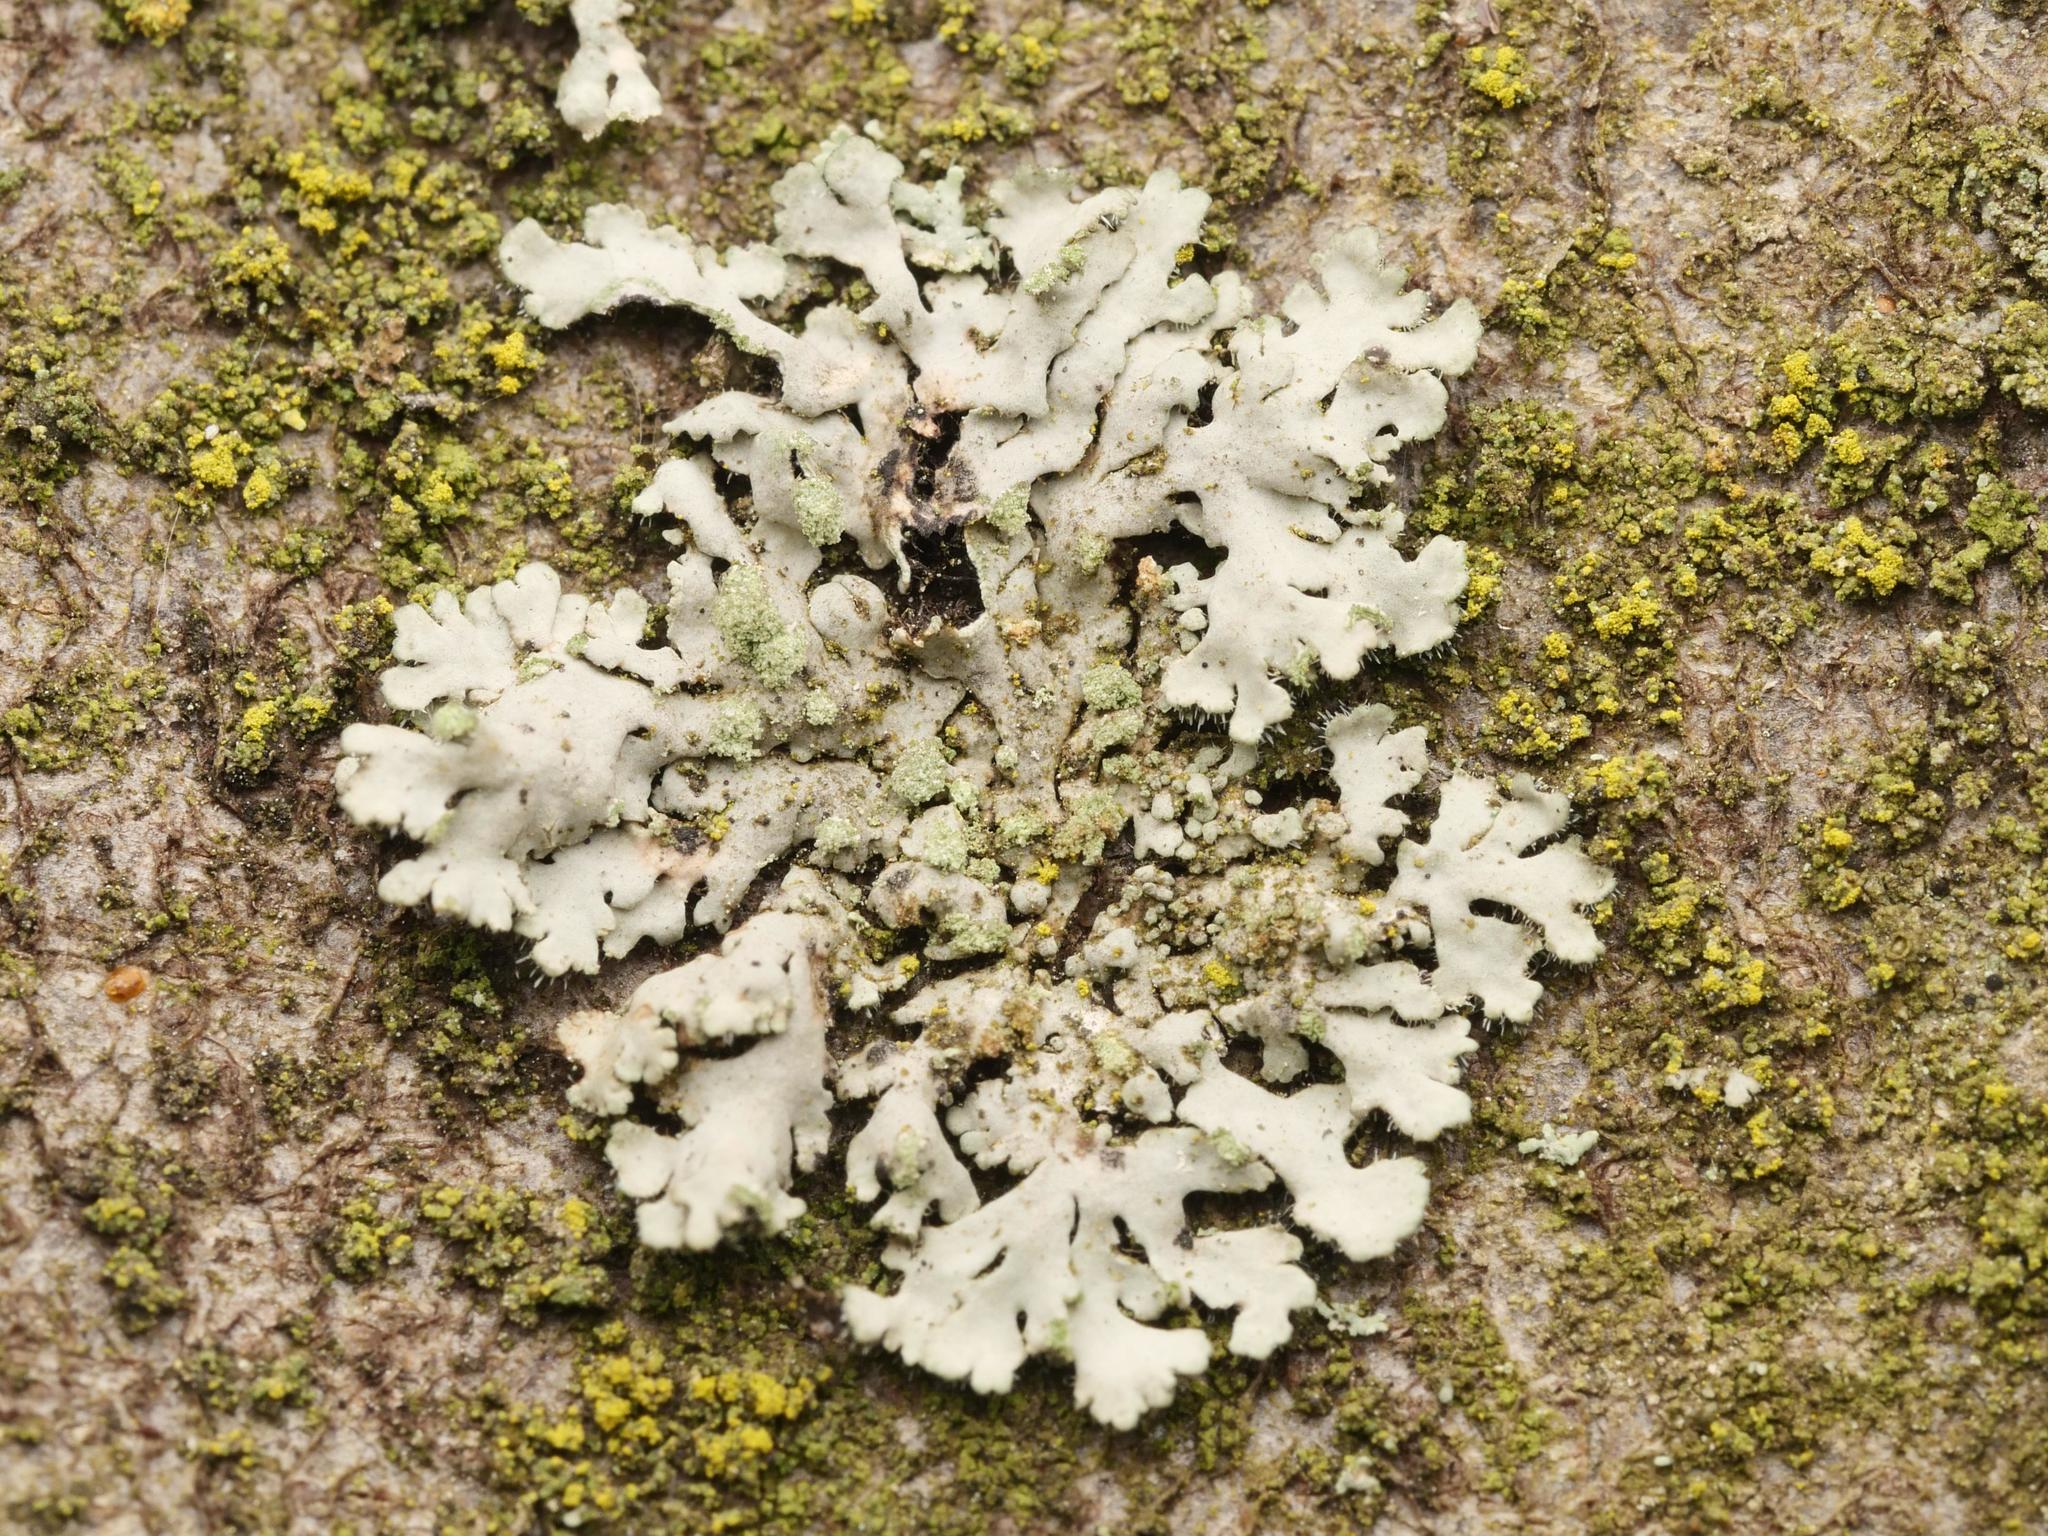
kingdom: Fungi
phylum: Ascomycota
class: Lecanoromycetes
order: Caliciales
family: Physciaceae
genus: Phaeophyscia
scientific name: Phaeophyscia orbicularis
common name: Mealy shadow lichen
